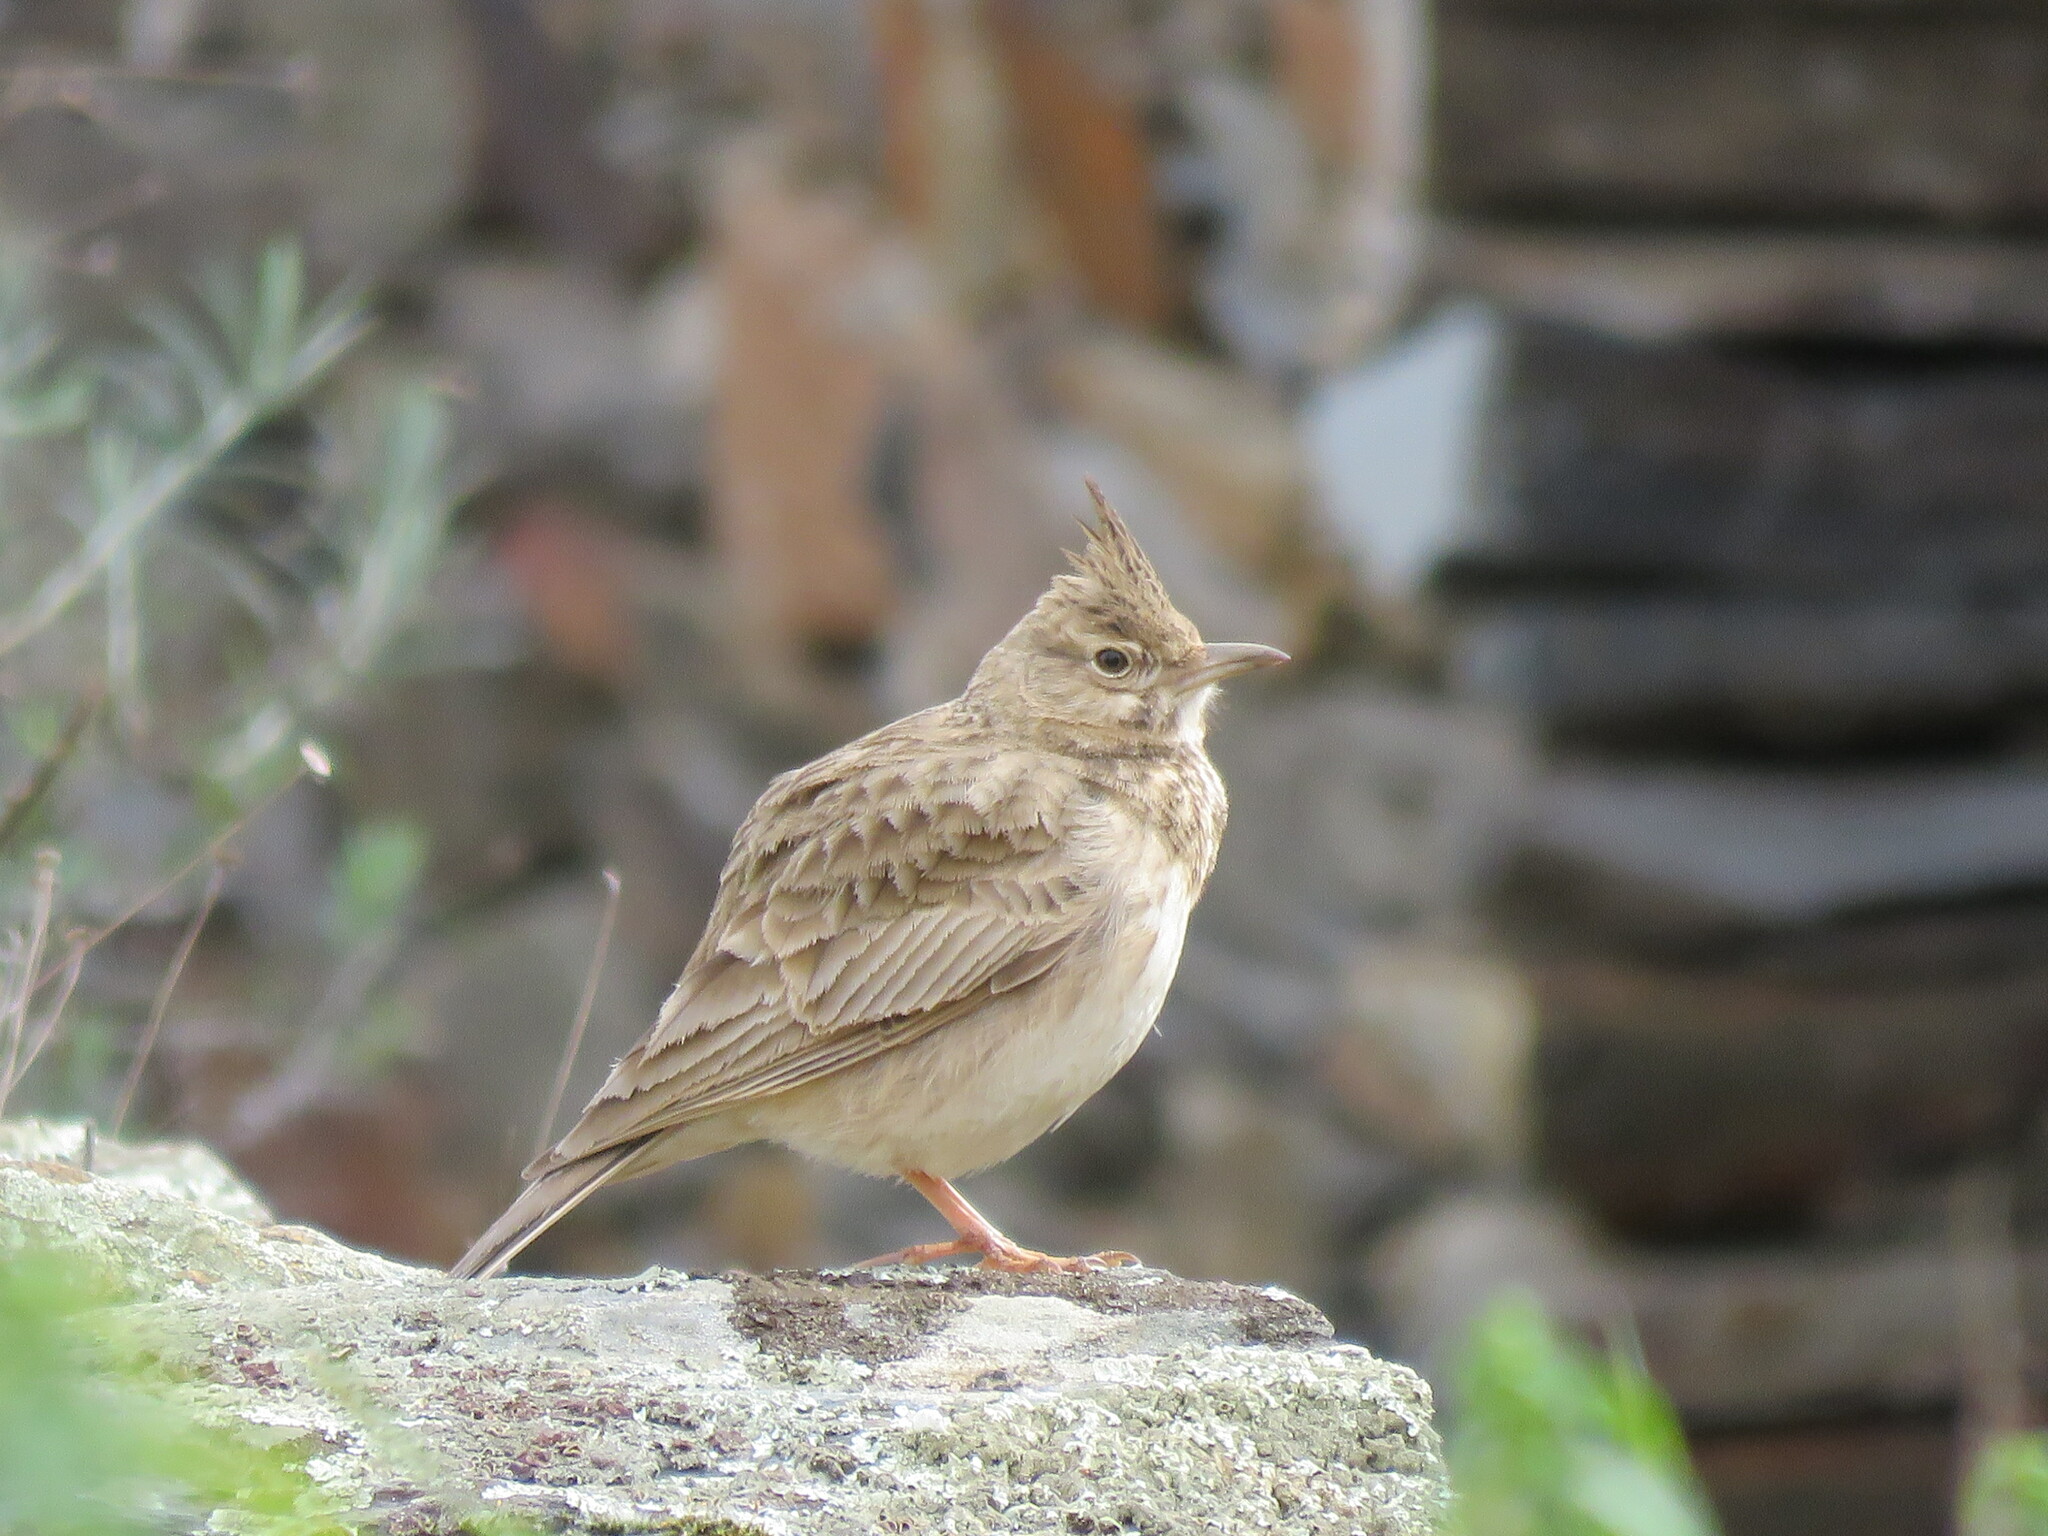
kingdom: Animalia
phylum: Chordata
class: Aves
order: Passeriformes
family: Alaudidae
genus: Galerida
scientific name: Galerida cristata
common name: Crested lark
